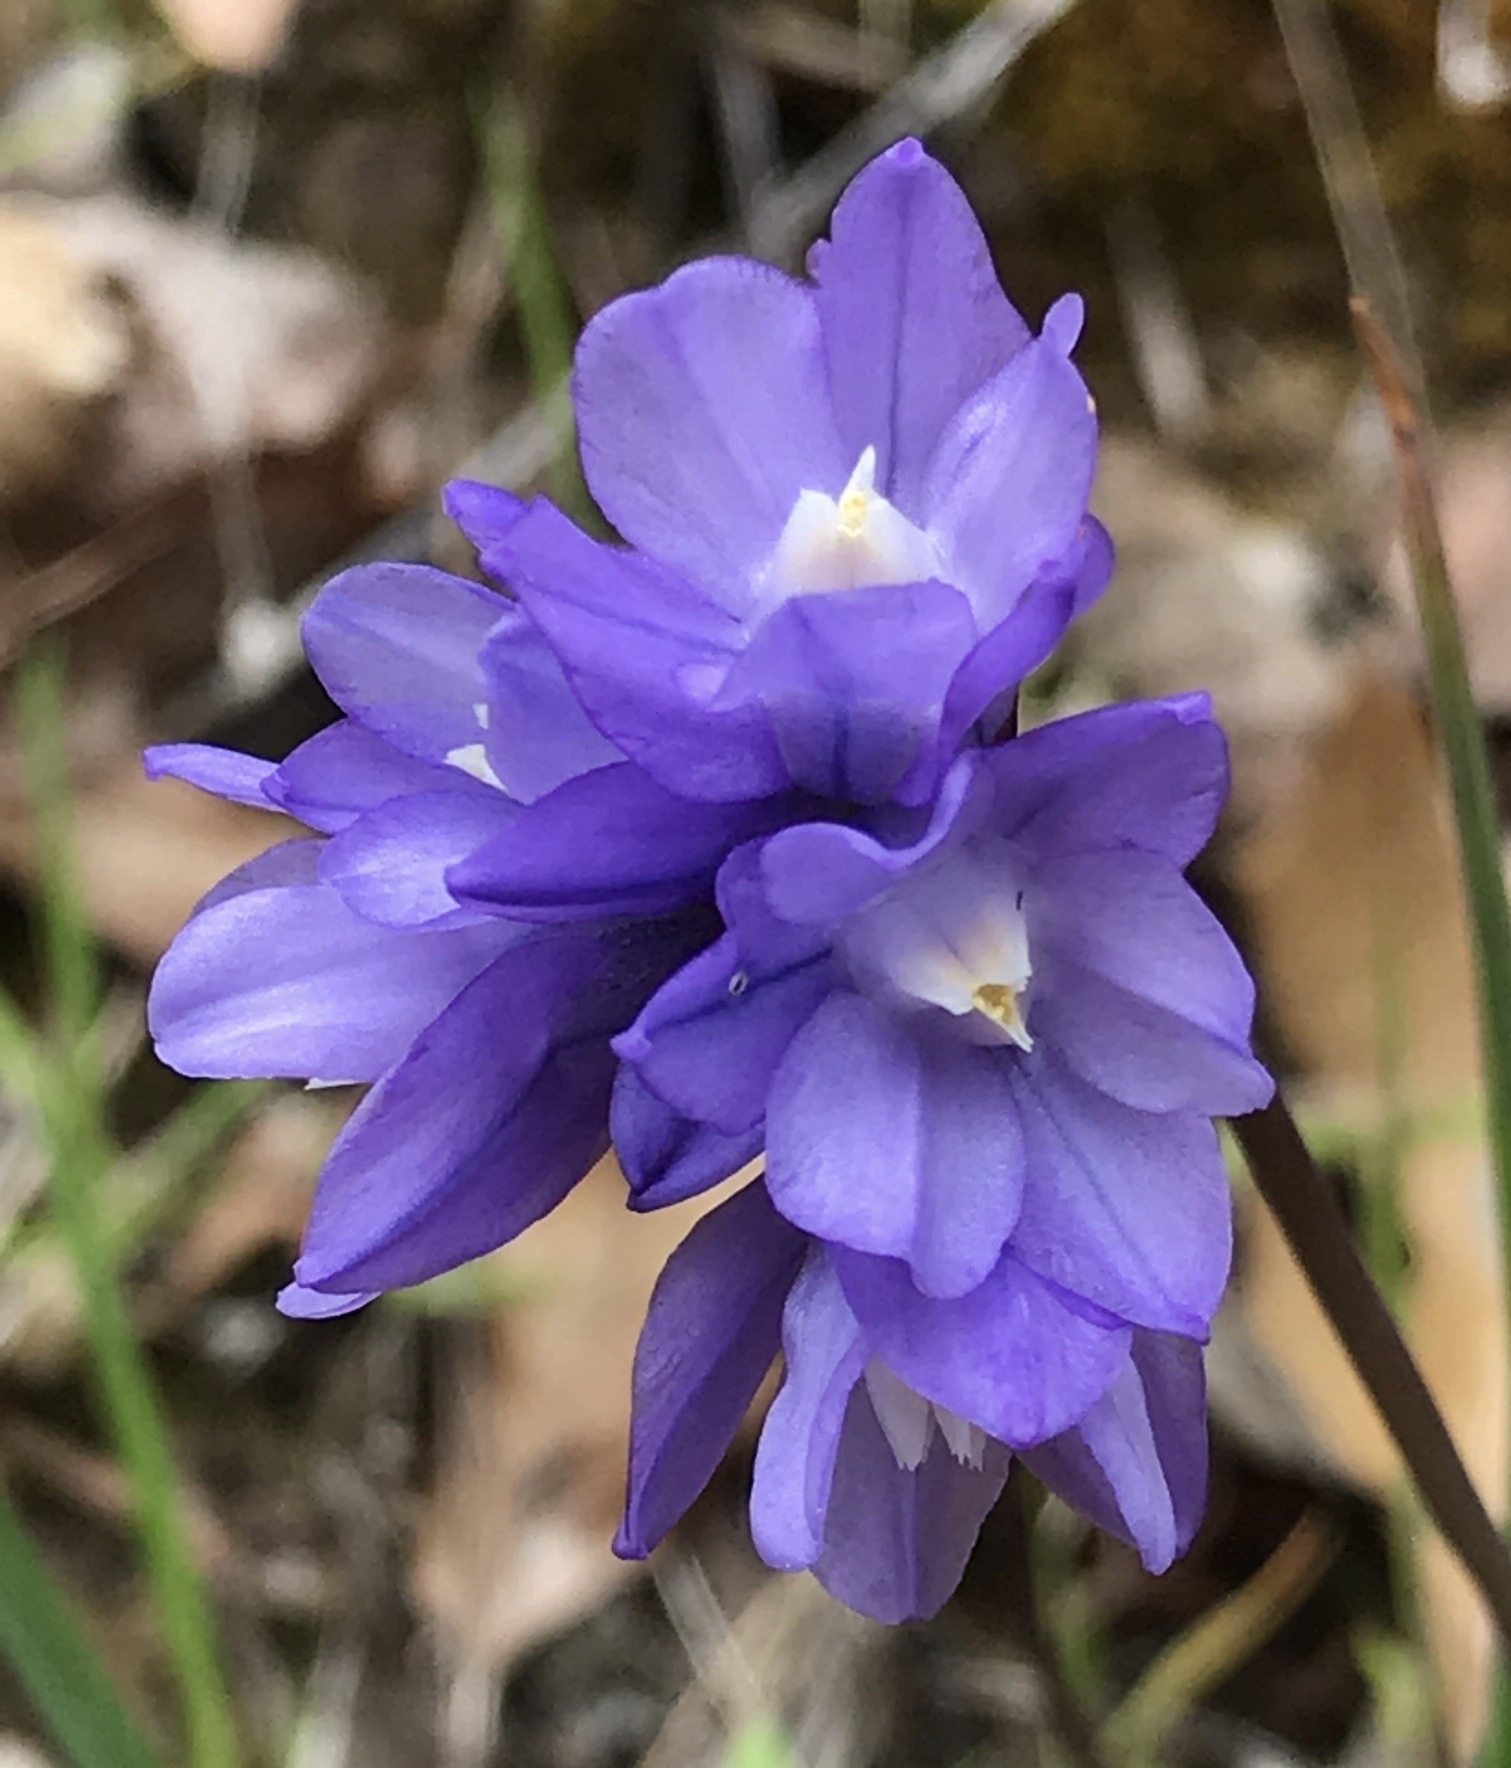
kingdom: Plantae
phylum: Tracheophyta
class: Liliopsida
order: Asparagales
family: Asparagaceae
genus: Dipterostemon
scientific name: Dipterostemon capitatus
